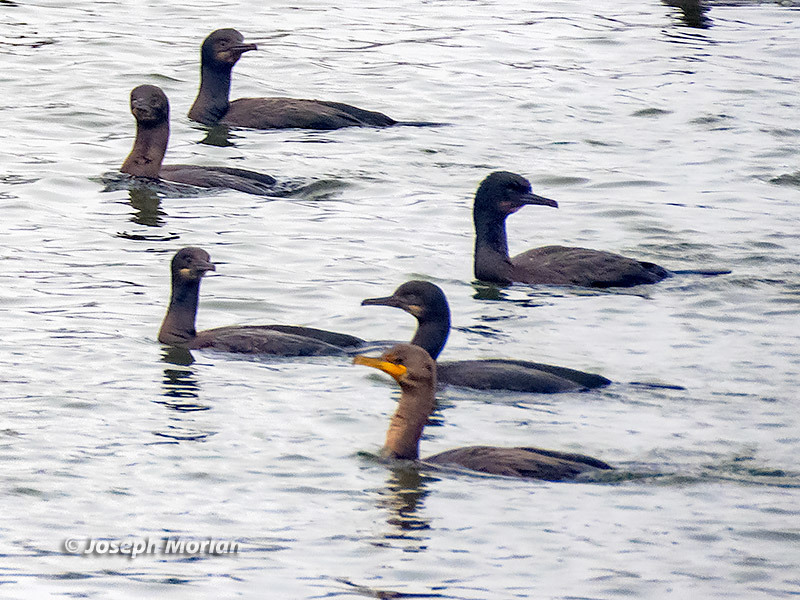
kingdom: Animalia
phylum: Chordata
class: Aves
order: Suliformes
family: Phalacrocoracidae
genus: Phalacrocorax
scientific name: Phalacrocorax auritus
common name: Double-crested cormorant
